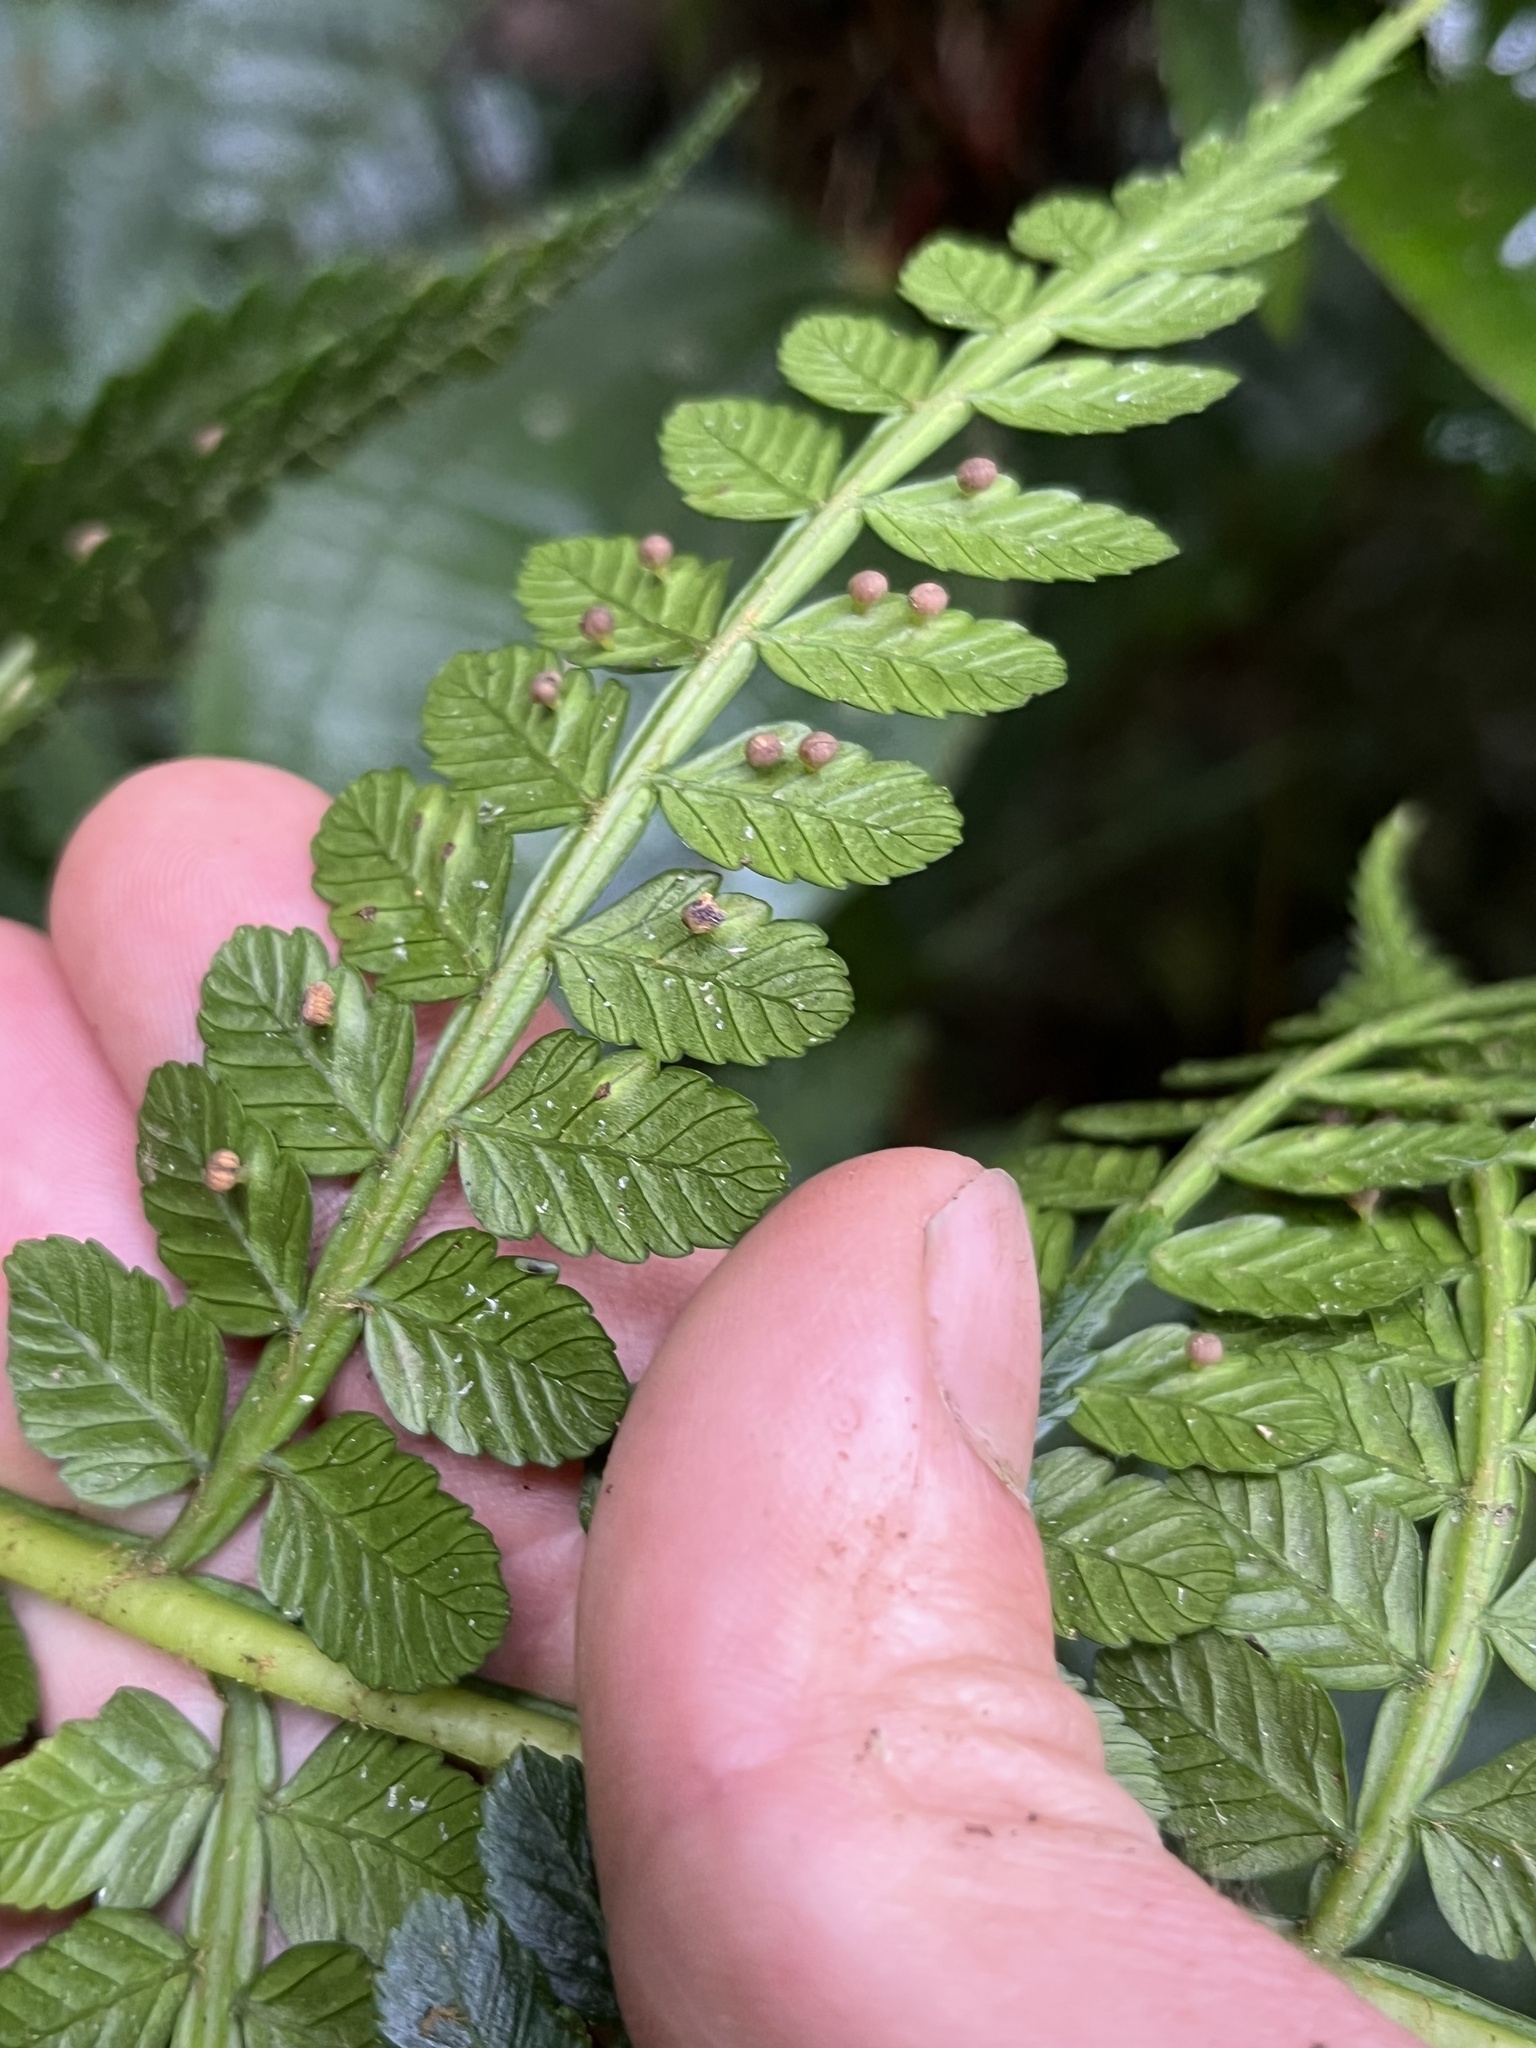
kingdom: Plantae
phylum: Tracheophyta
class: Polypodiopsida
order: Marattiales
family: Marattiaceae
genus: Eupodium
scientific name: Eupodium pittieri
